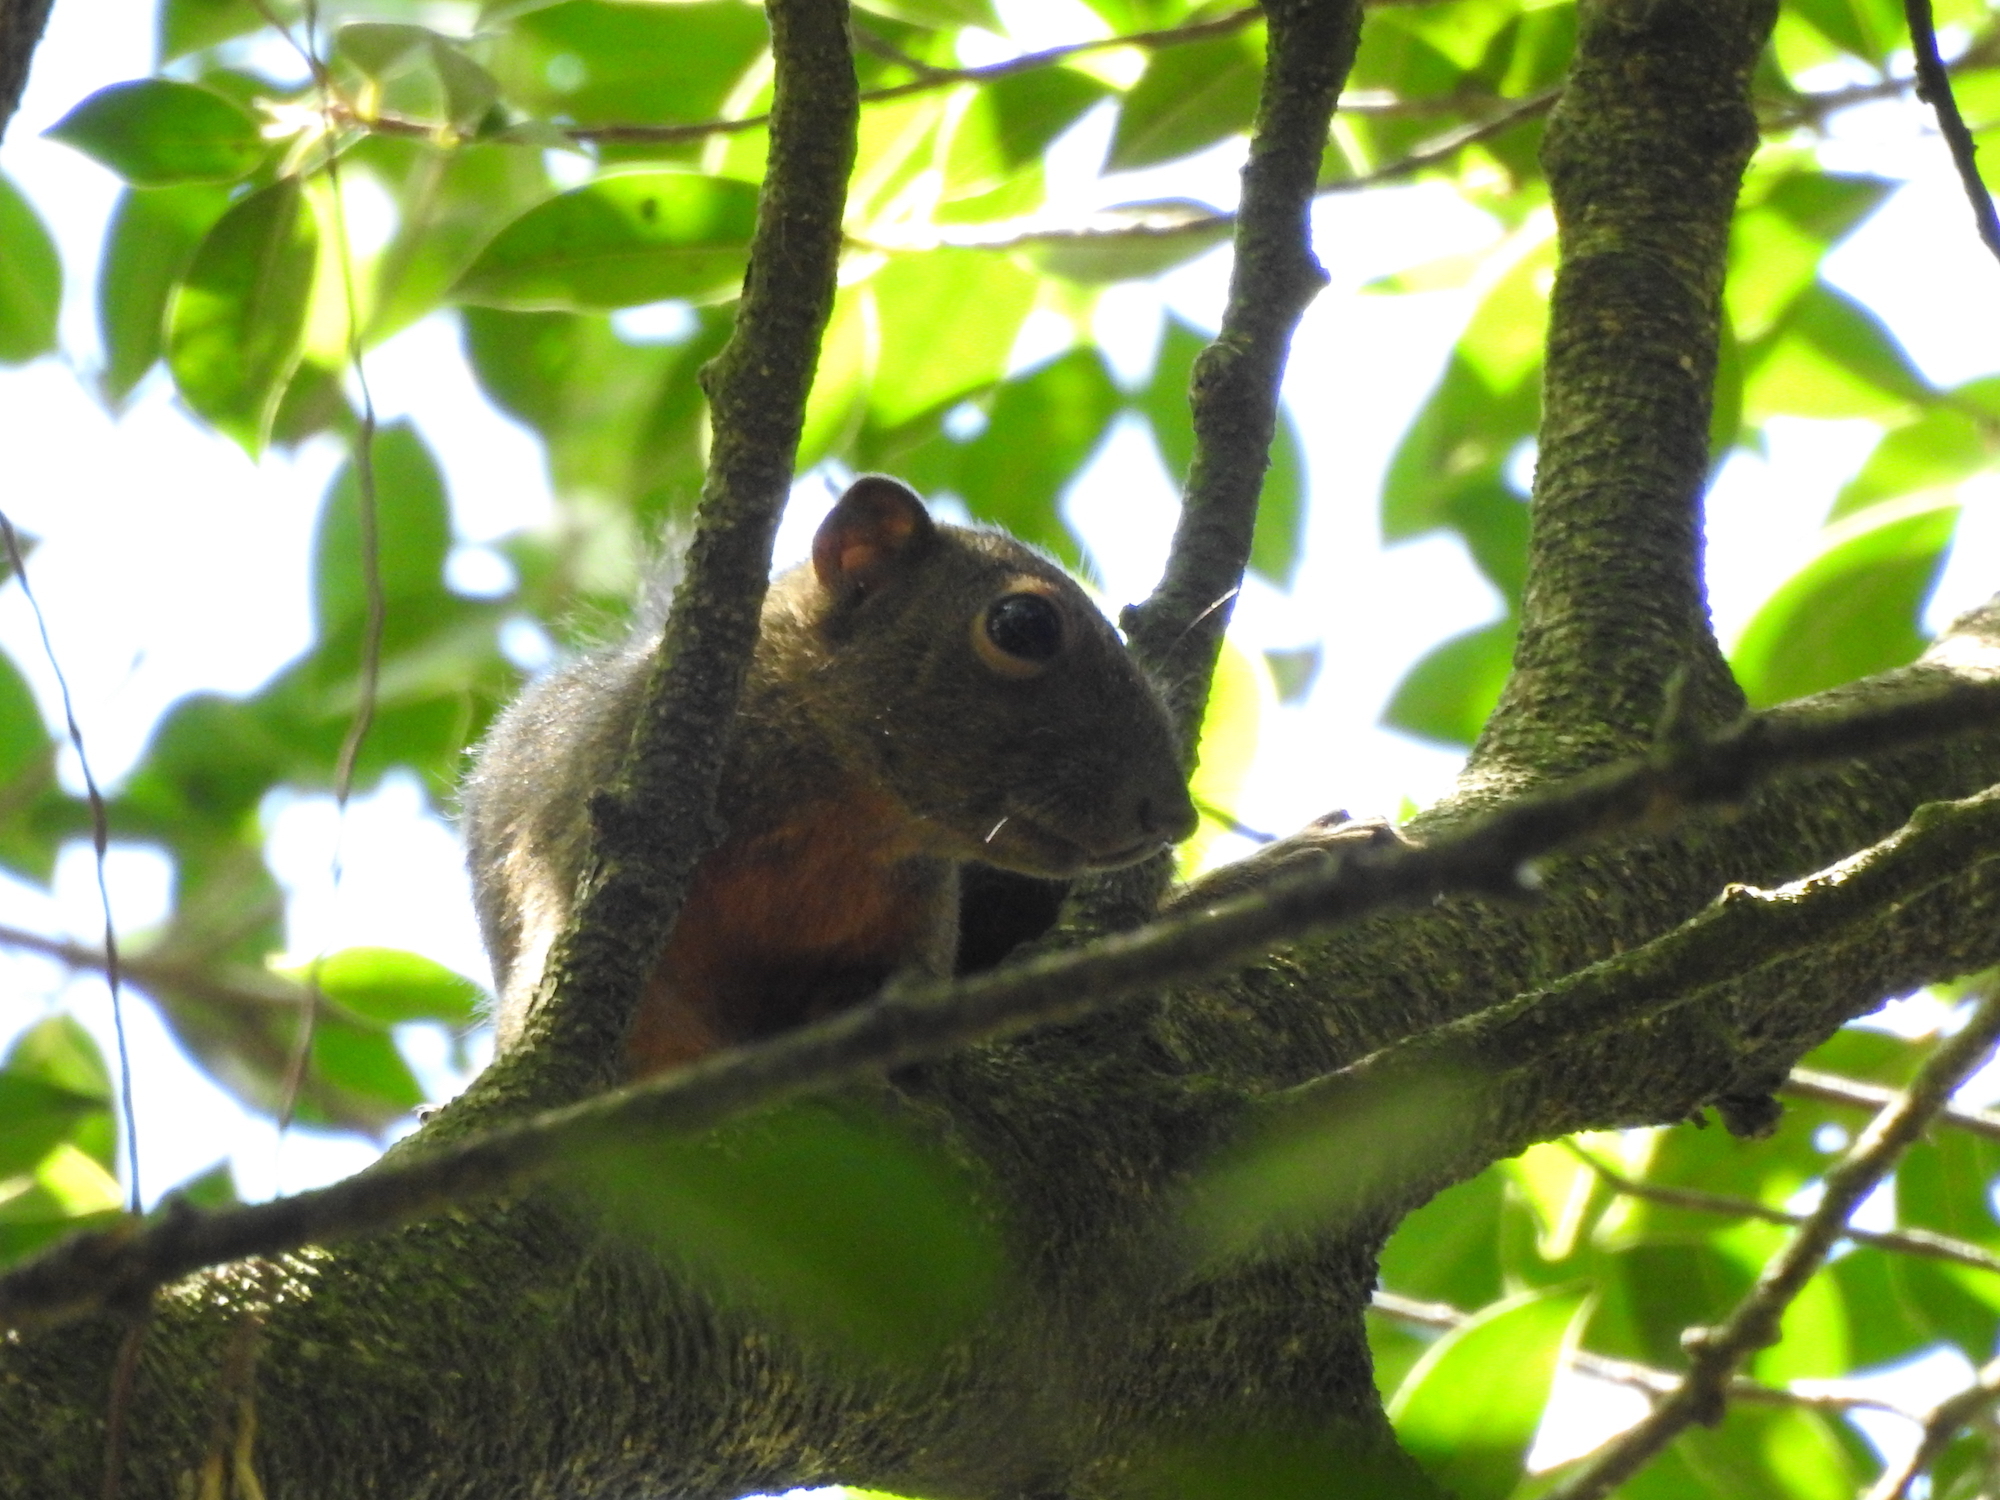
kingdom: Animalia
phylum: Chordata
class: Mammalia
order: Rodentia
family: Sciuridae
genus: Callosciurus
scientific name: Callosciurus notatus
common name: Plantain squirrel
